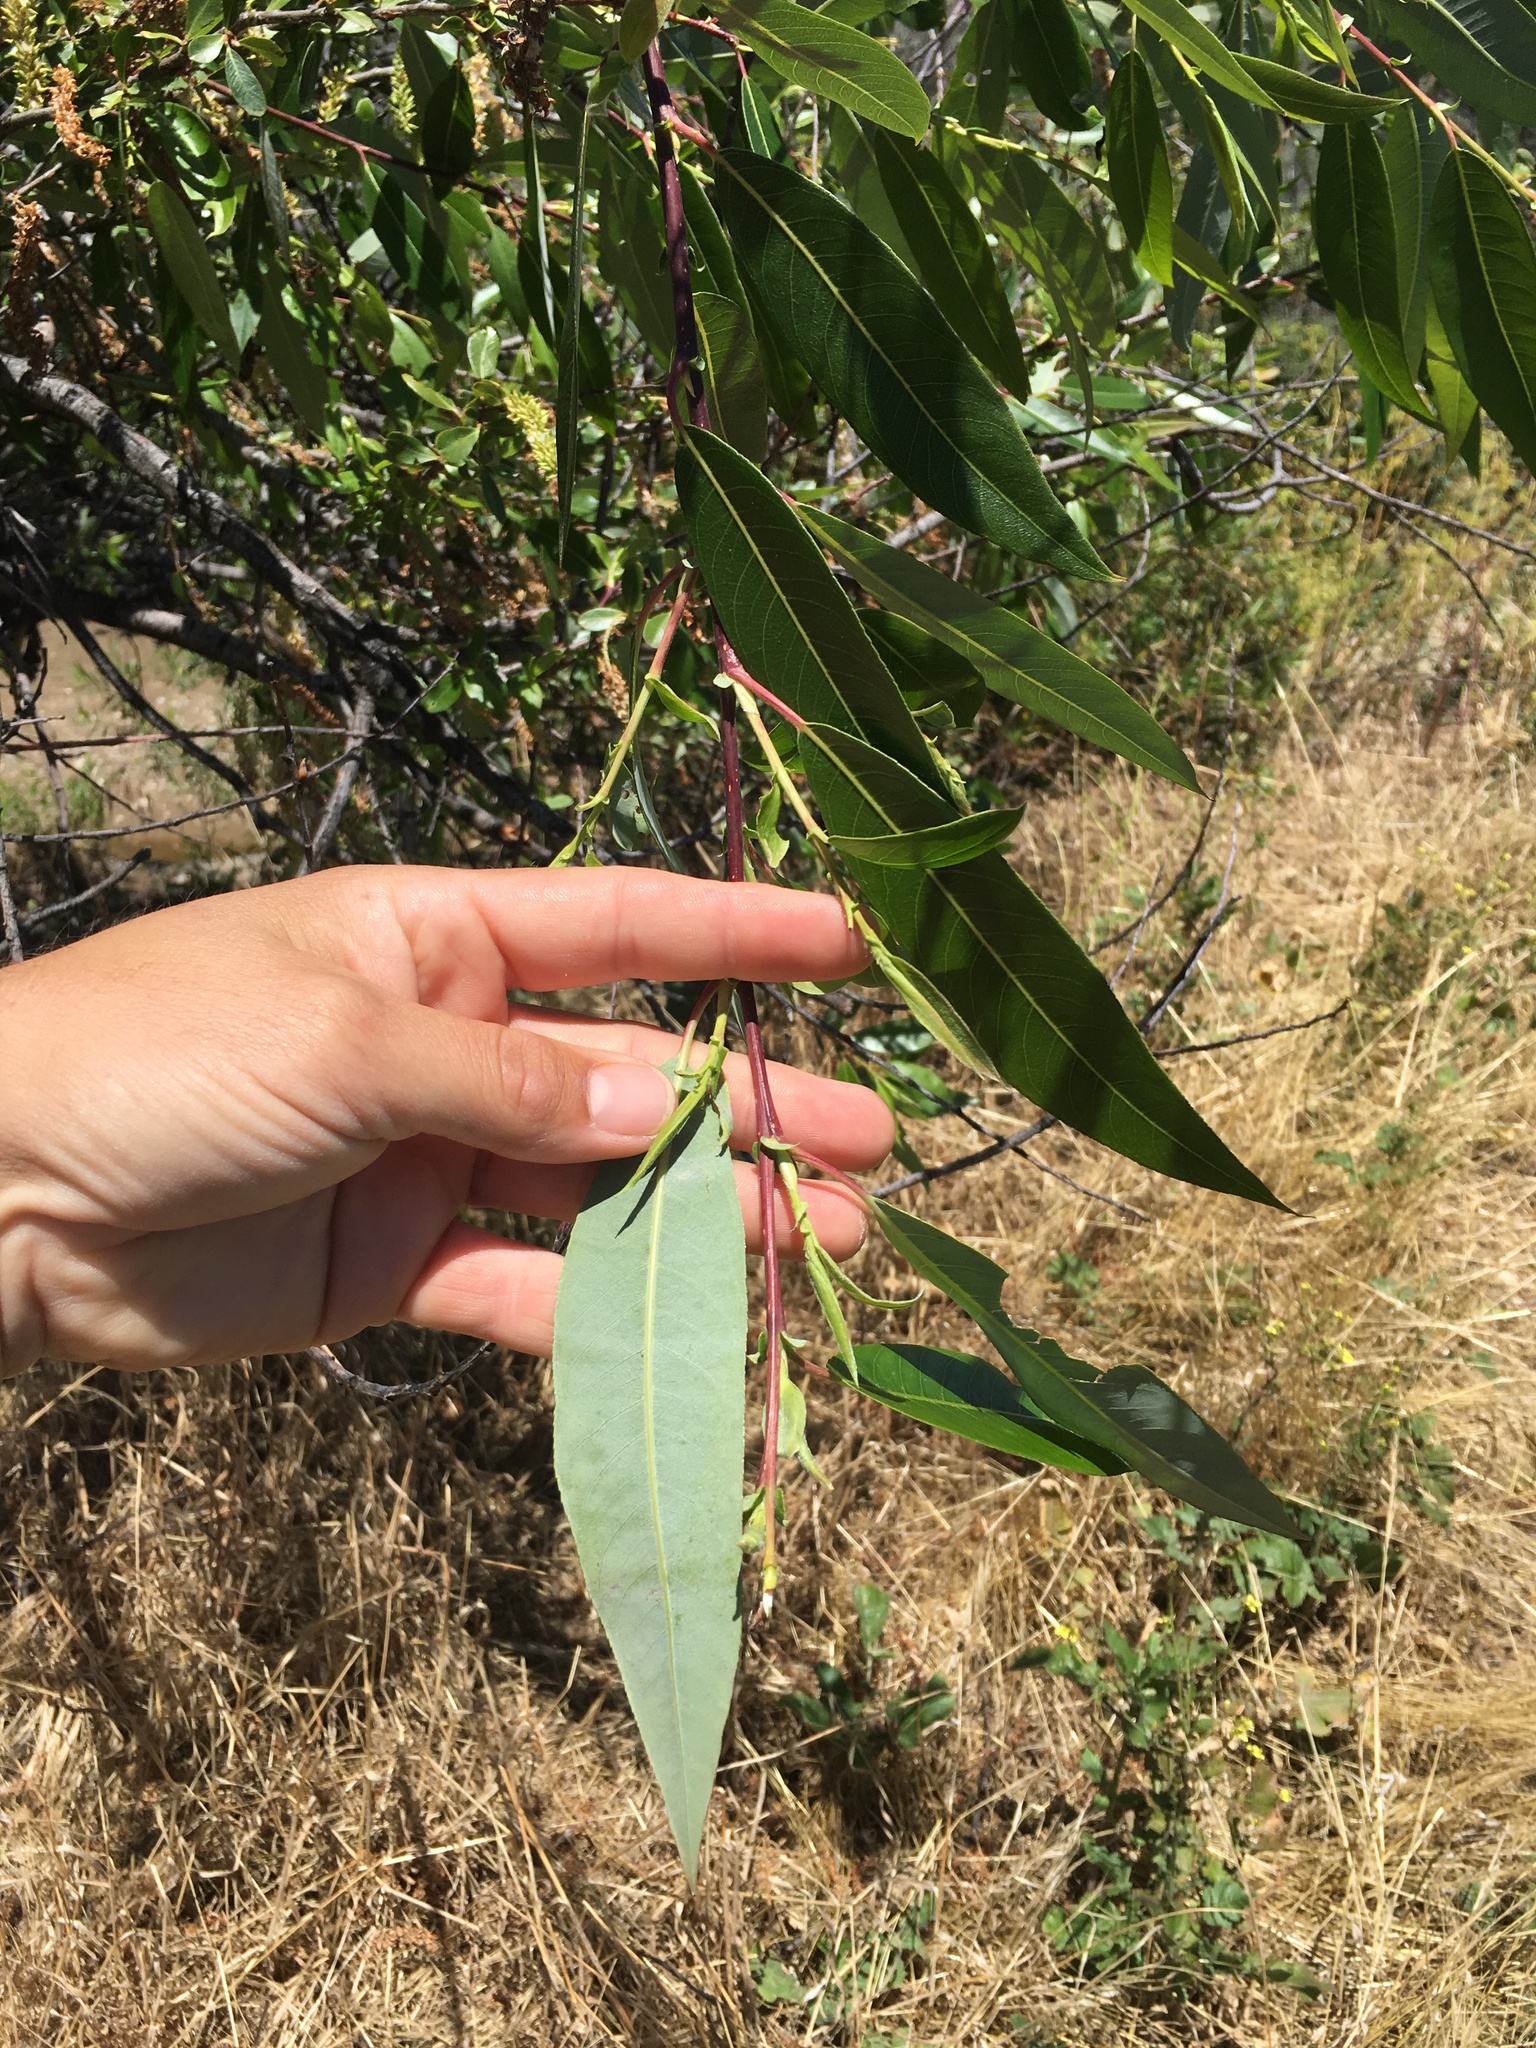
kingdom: Plantae
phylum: Tracheophyta
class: Magnoliopsida
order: Malpighiales
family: Salicaceae
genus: Salix
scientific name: Salix laevigata
